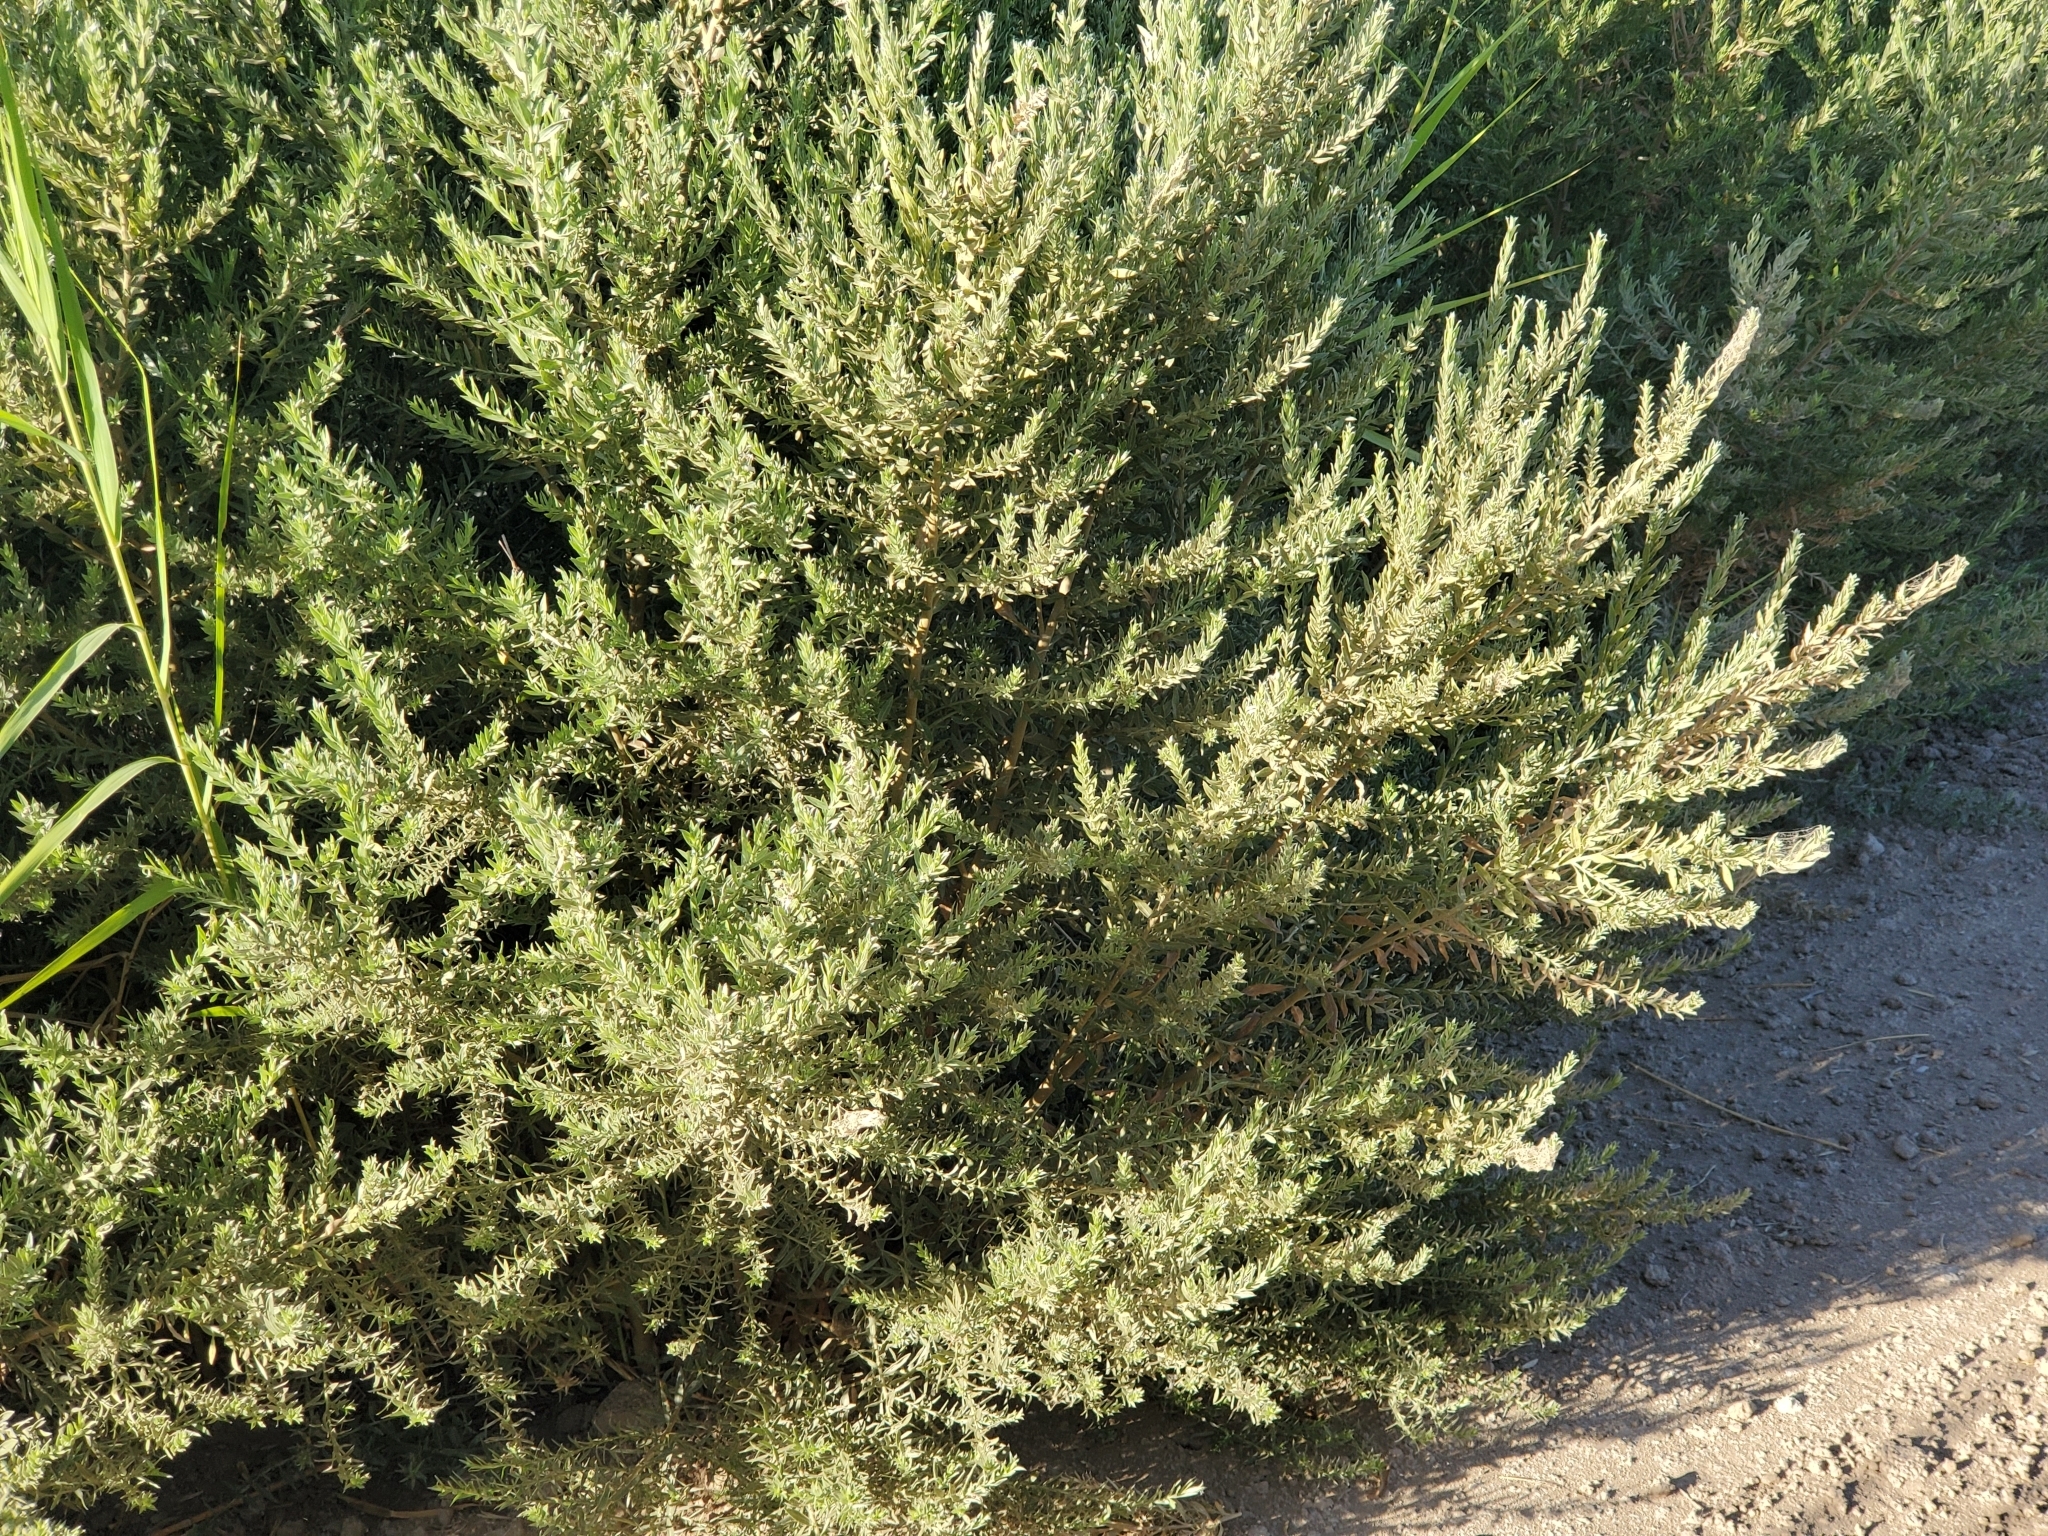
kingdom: Plantae
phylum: Tracheophyta
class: Magnoliopsida
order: Asterales
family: Asteraceae
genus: Pluchea
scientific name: Pluchea sericea
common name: Arrow-weed
